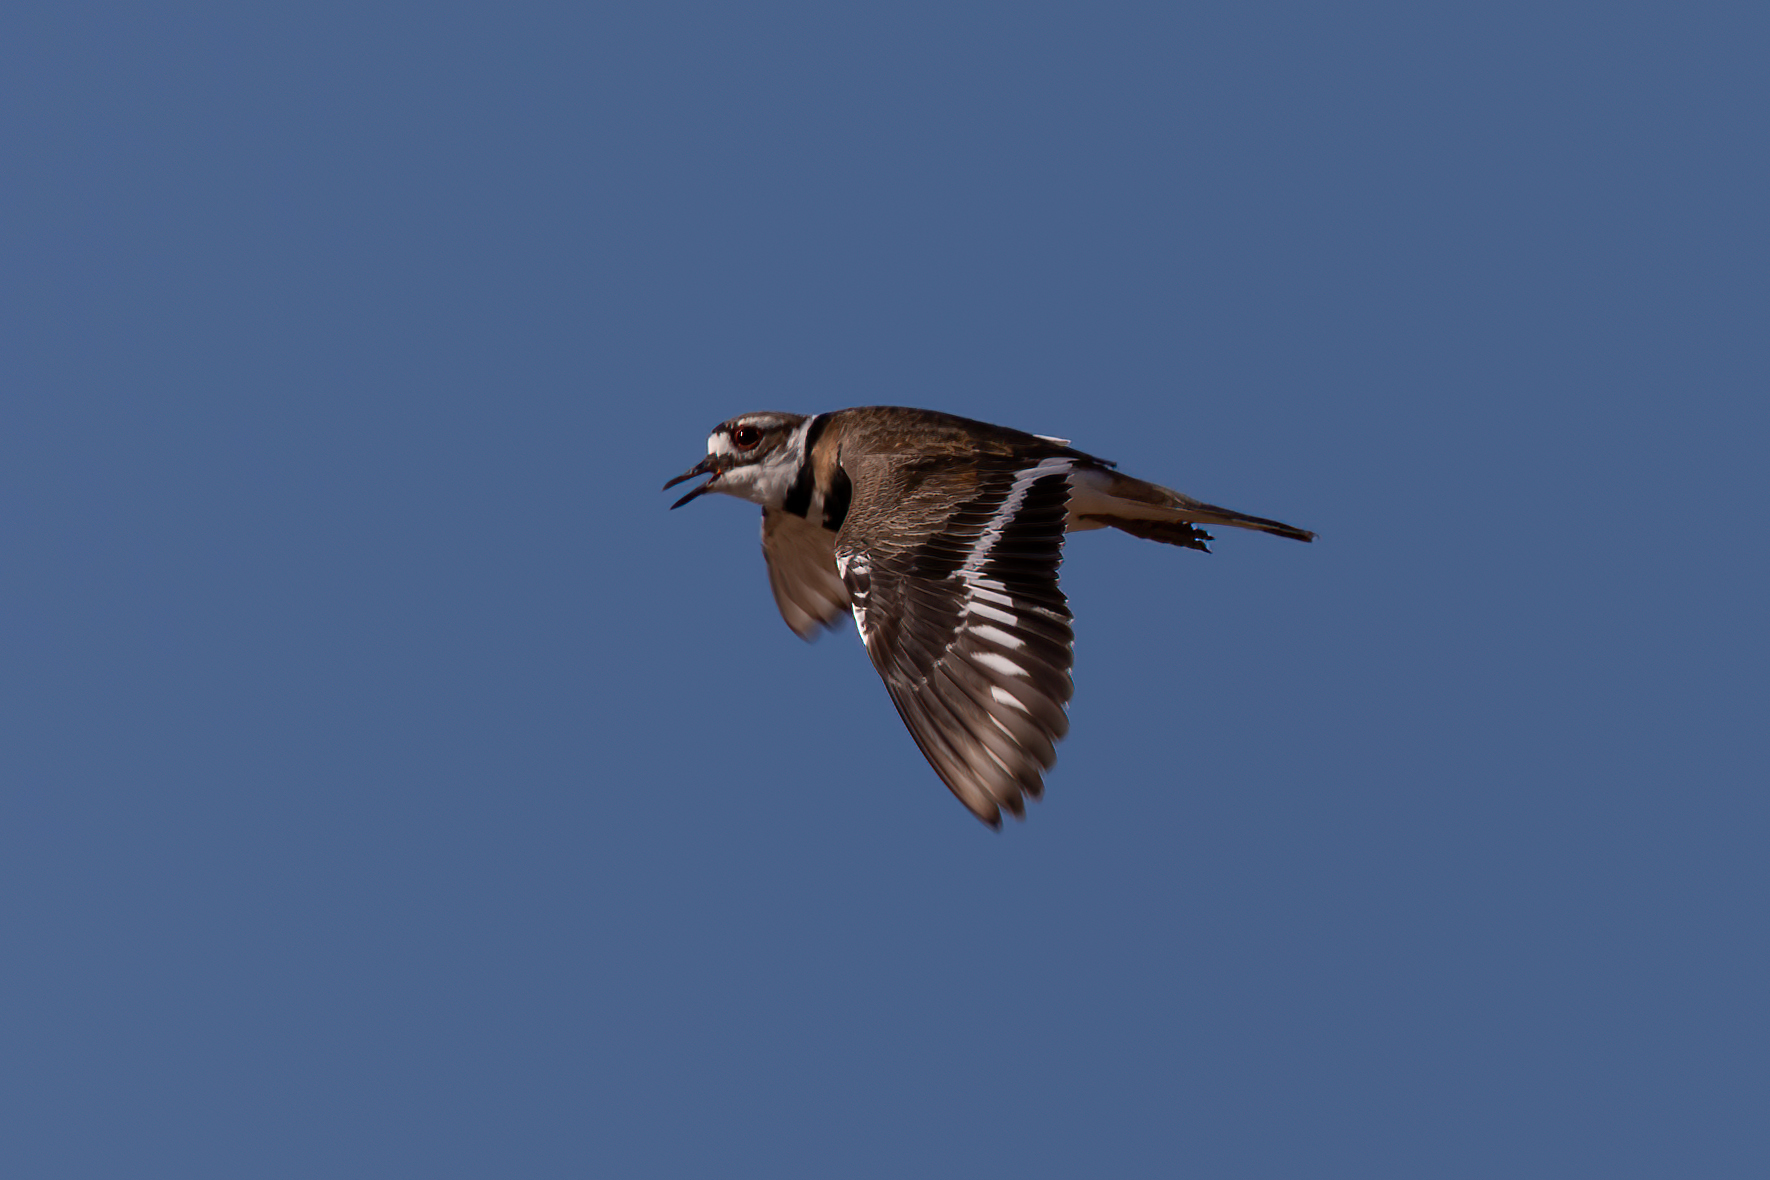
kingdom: Animalia
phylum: Chordata
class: Aves
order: Charadriiformes
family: Charadriidae
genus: Charadrius
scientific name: Charadrius vociferus
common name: Killdeer
